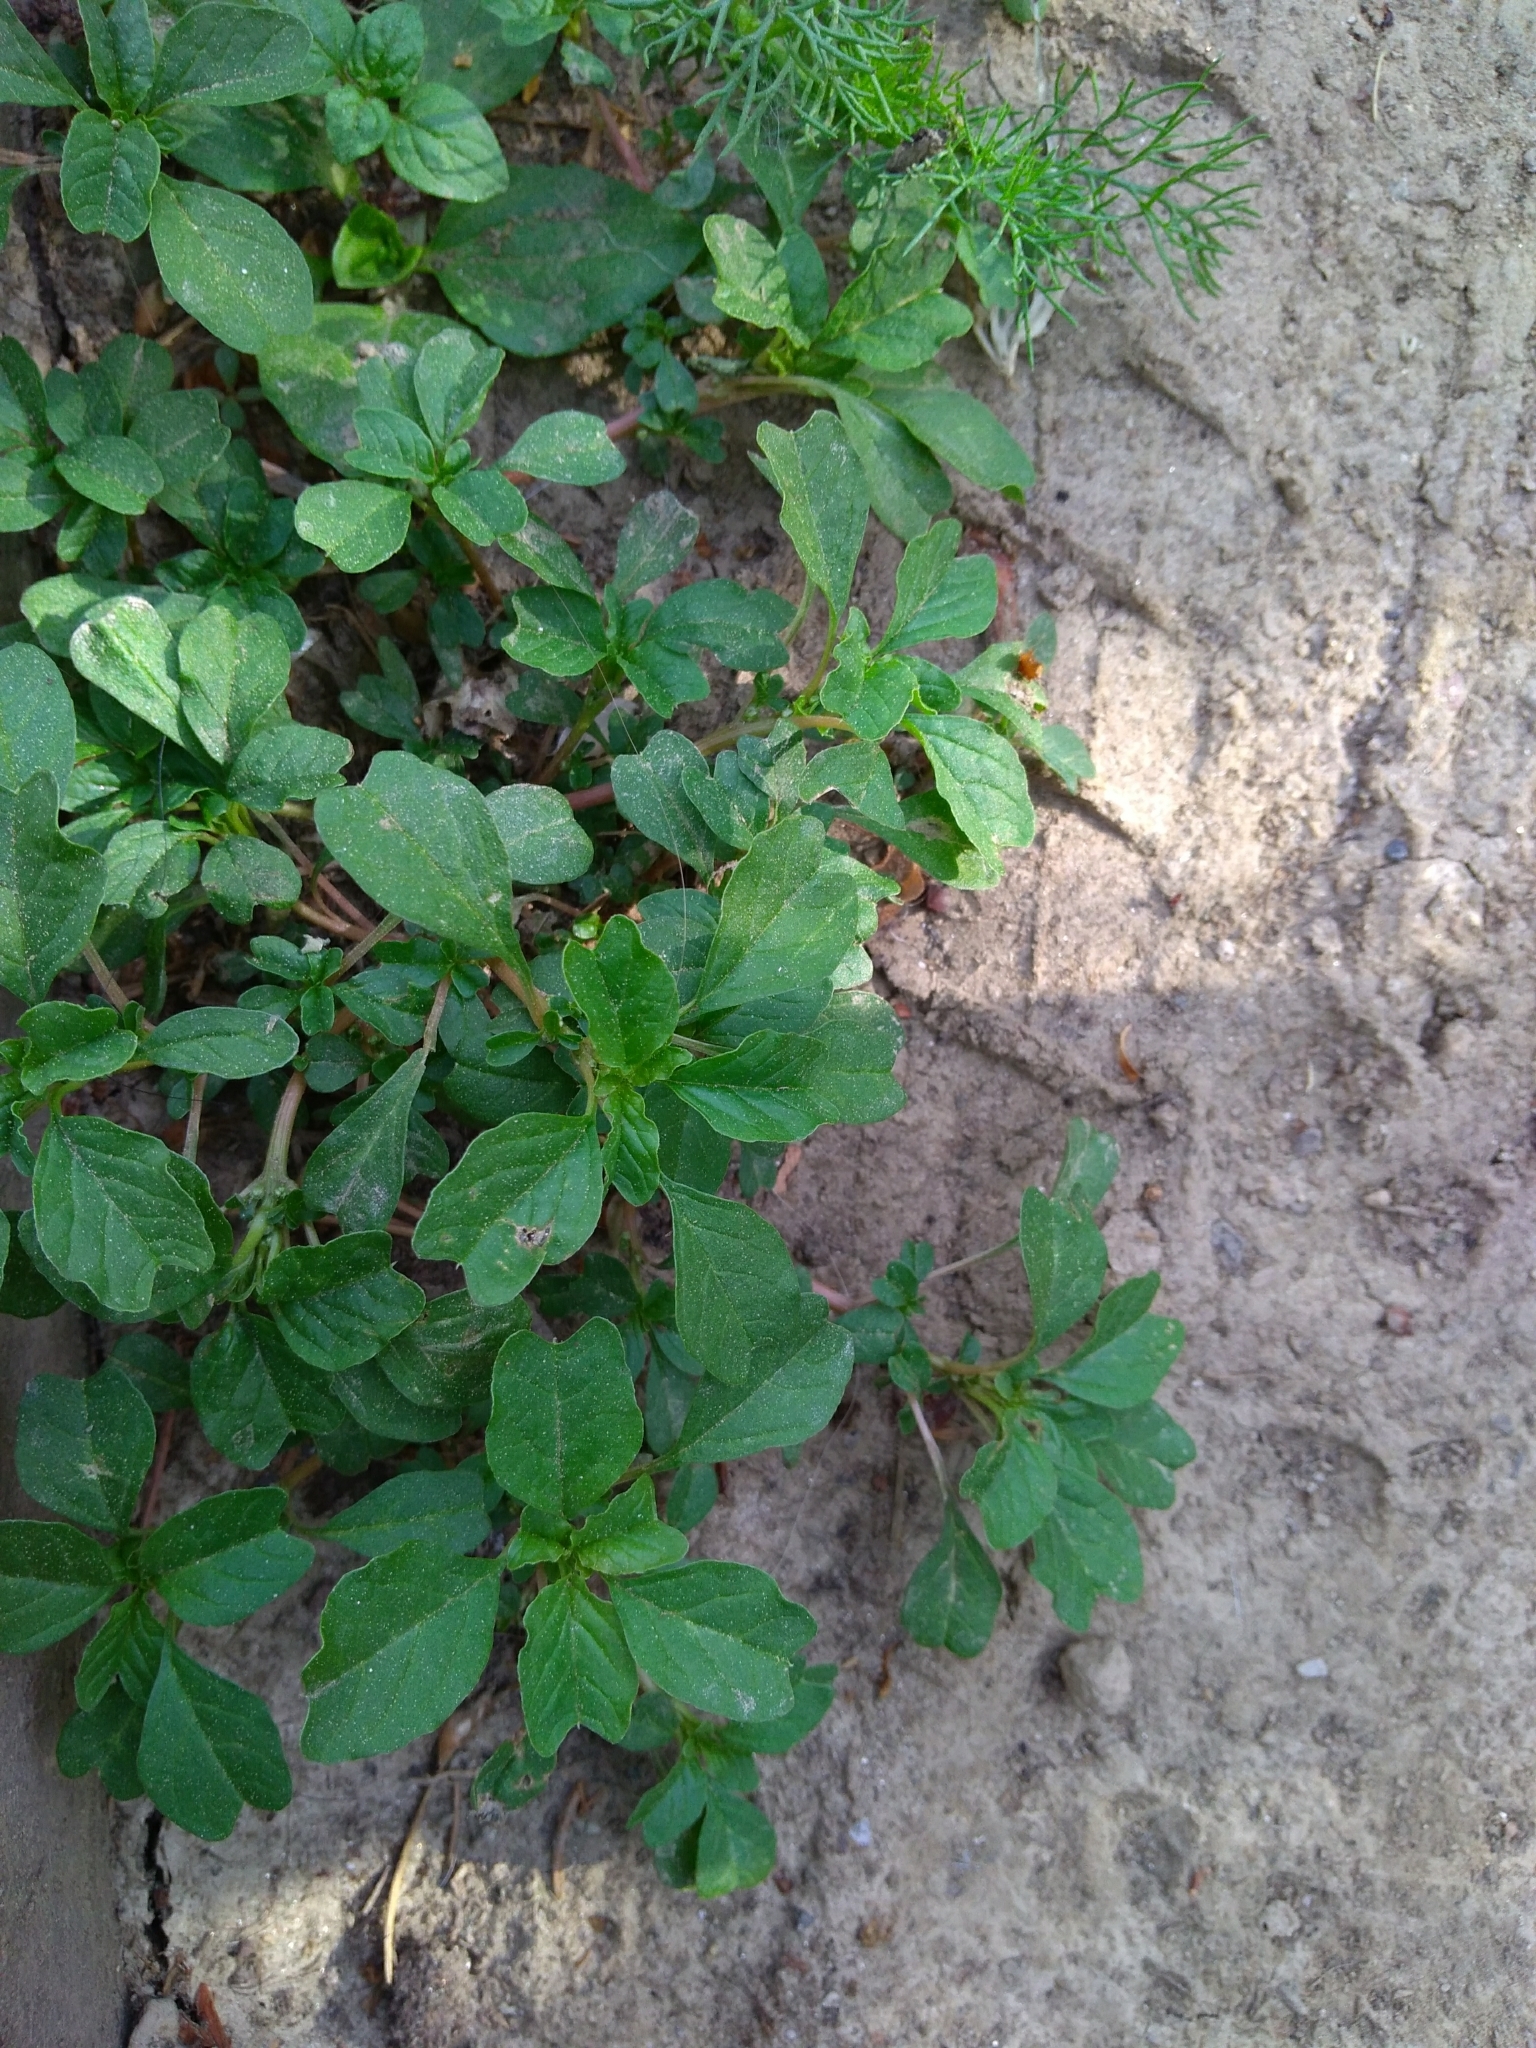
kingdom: Plantae
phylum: Tracheophyta
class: Magnoliopsida
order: Caryophyllales
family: Amaranthaceae
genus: Amaranthus
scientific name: Amaranthus blitum
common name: Purple amaranth
